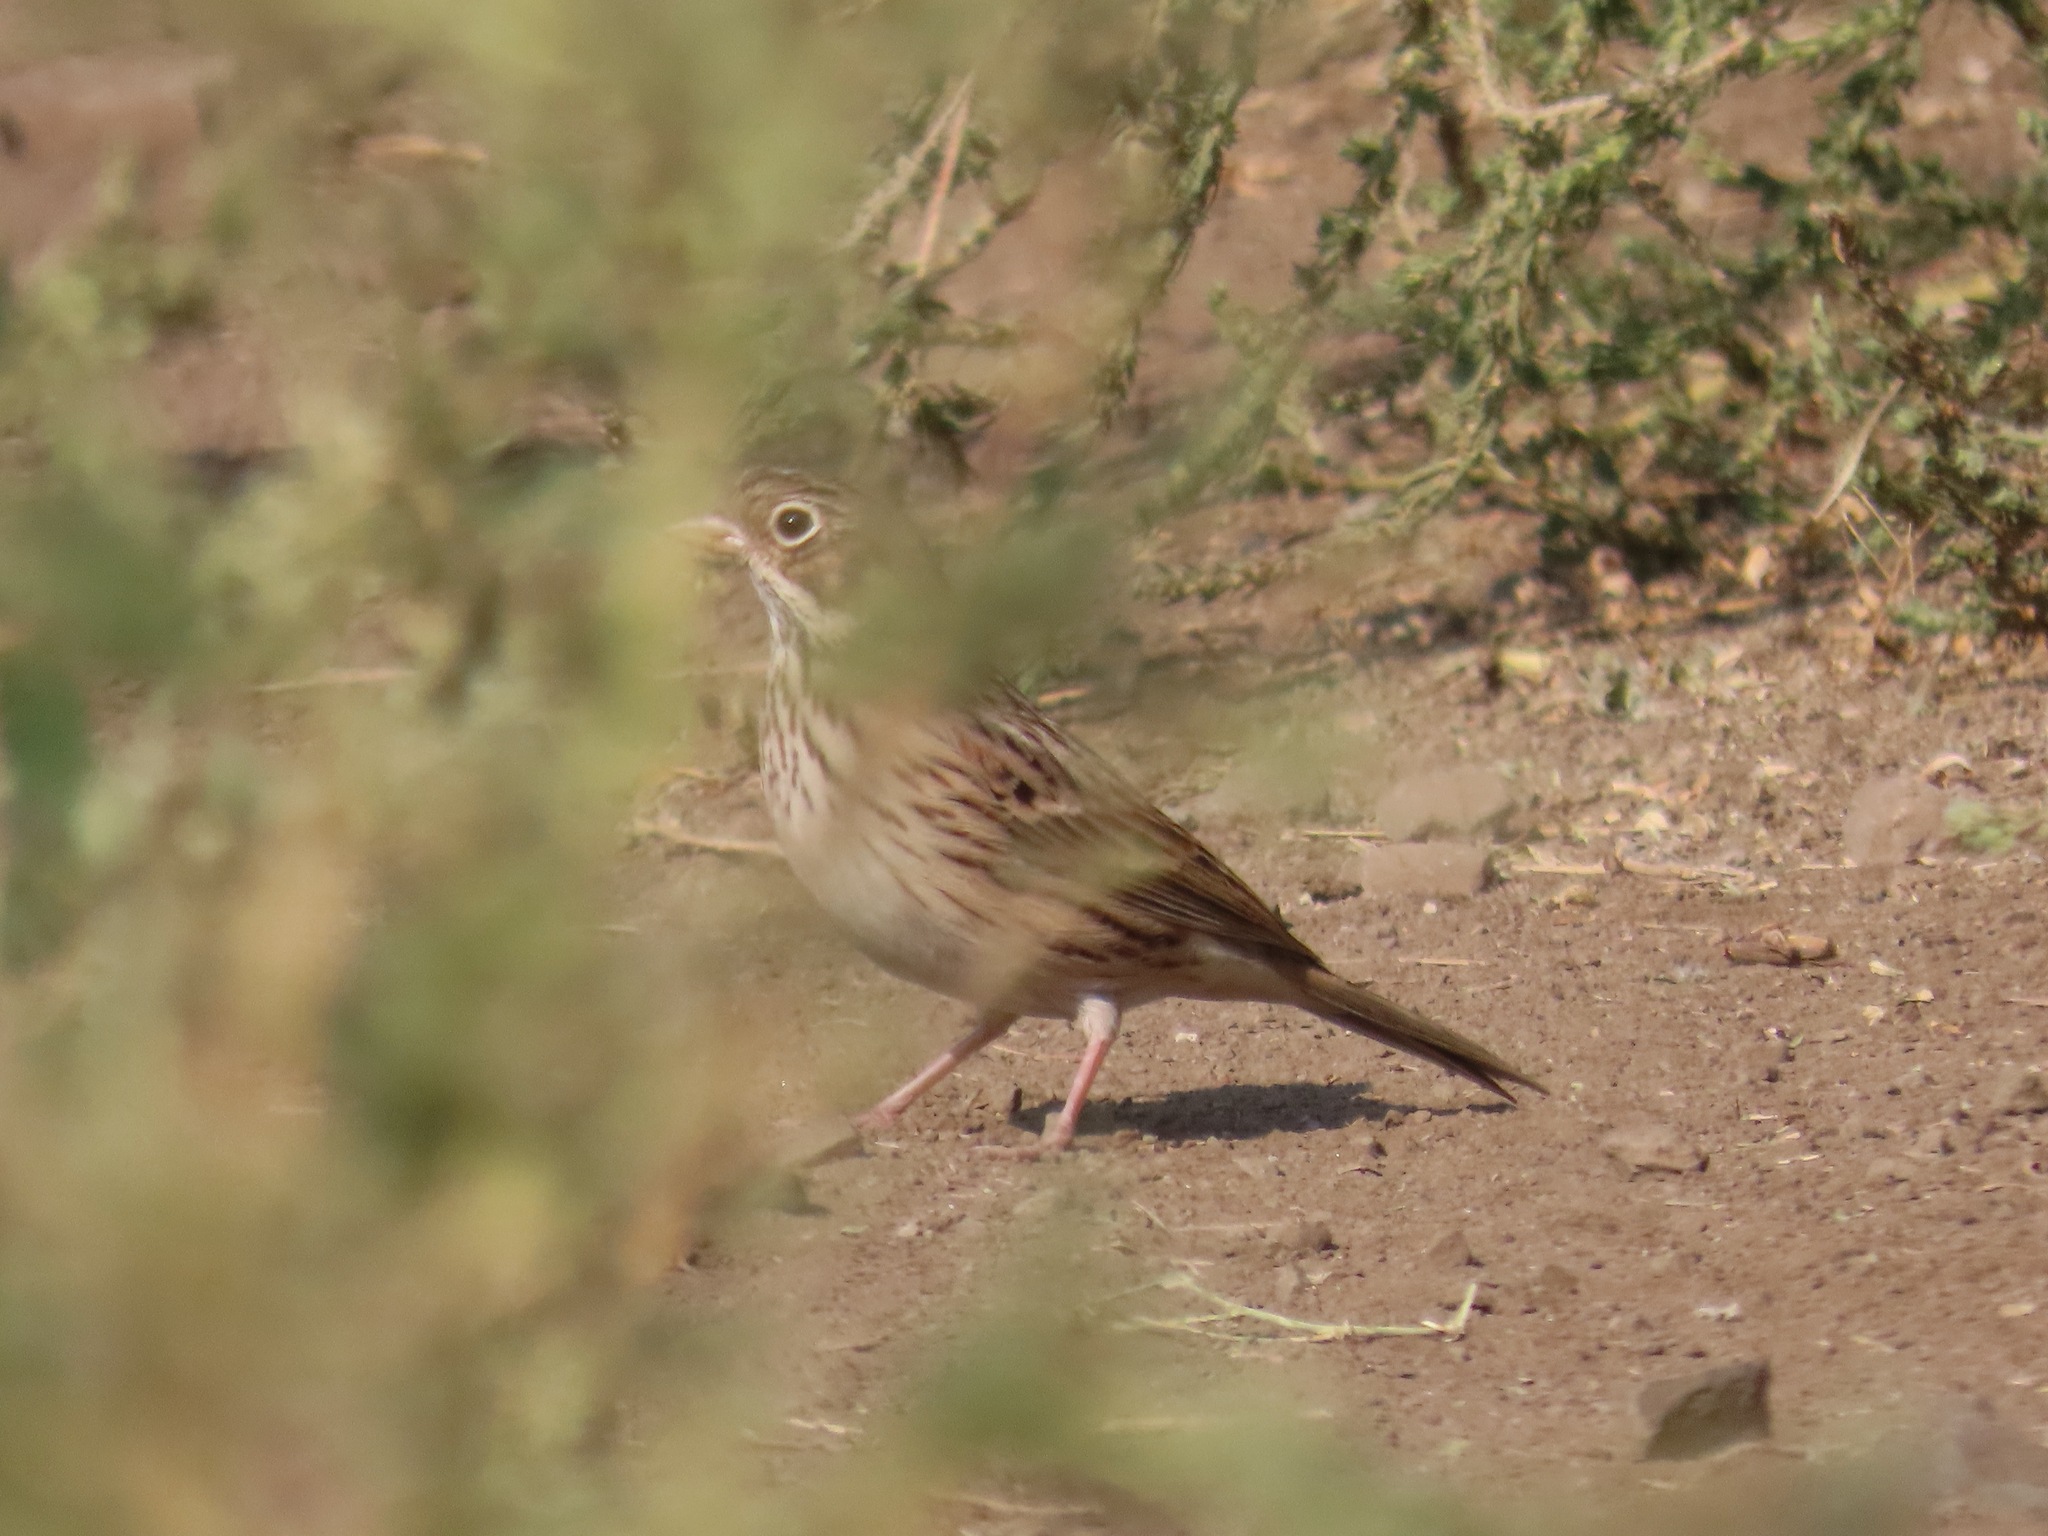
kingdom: Animalia
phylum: Chordata
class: Aves
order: Passeriformes
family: Passerellidae
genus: Pooecetes
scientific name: Pooecetes gramineus
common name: Vesper sparrow
